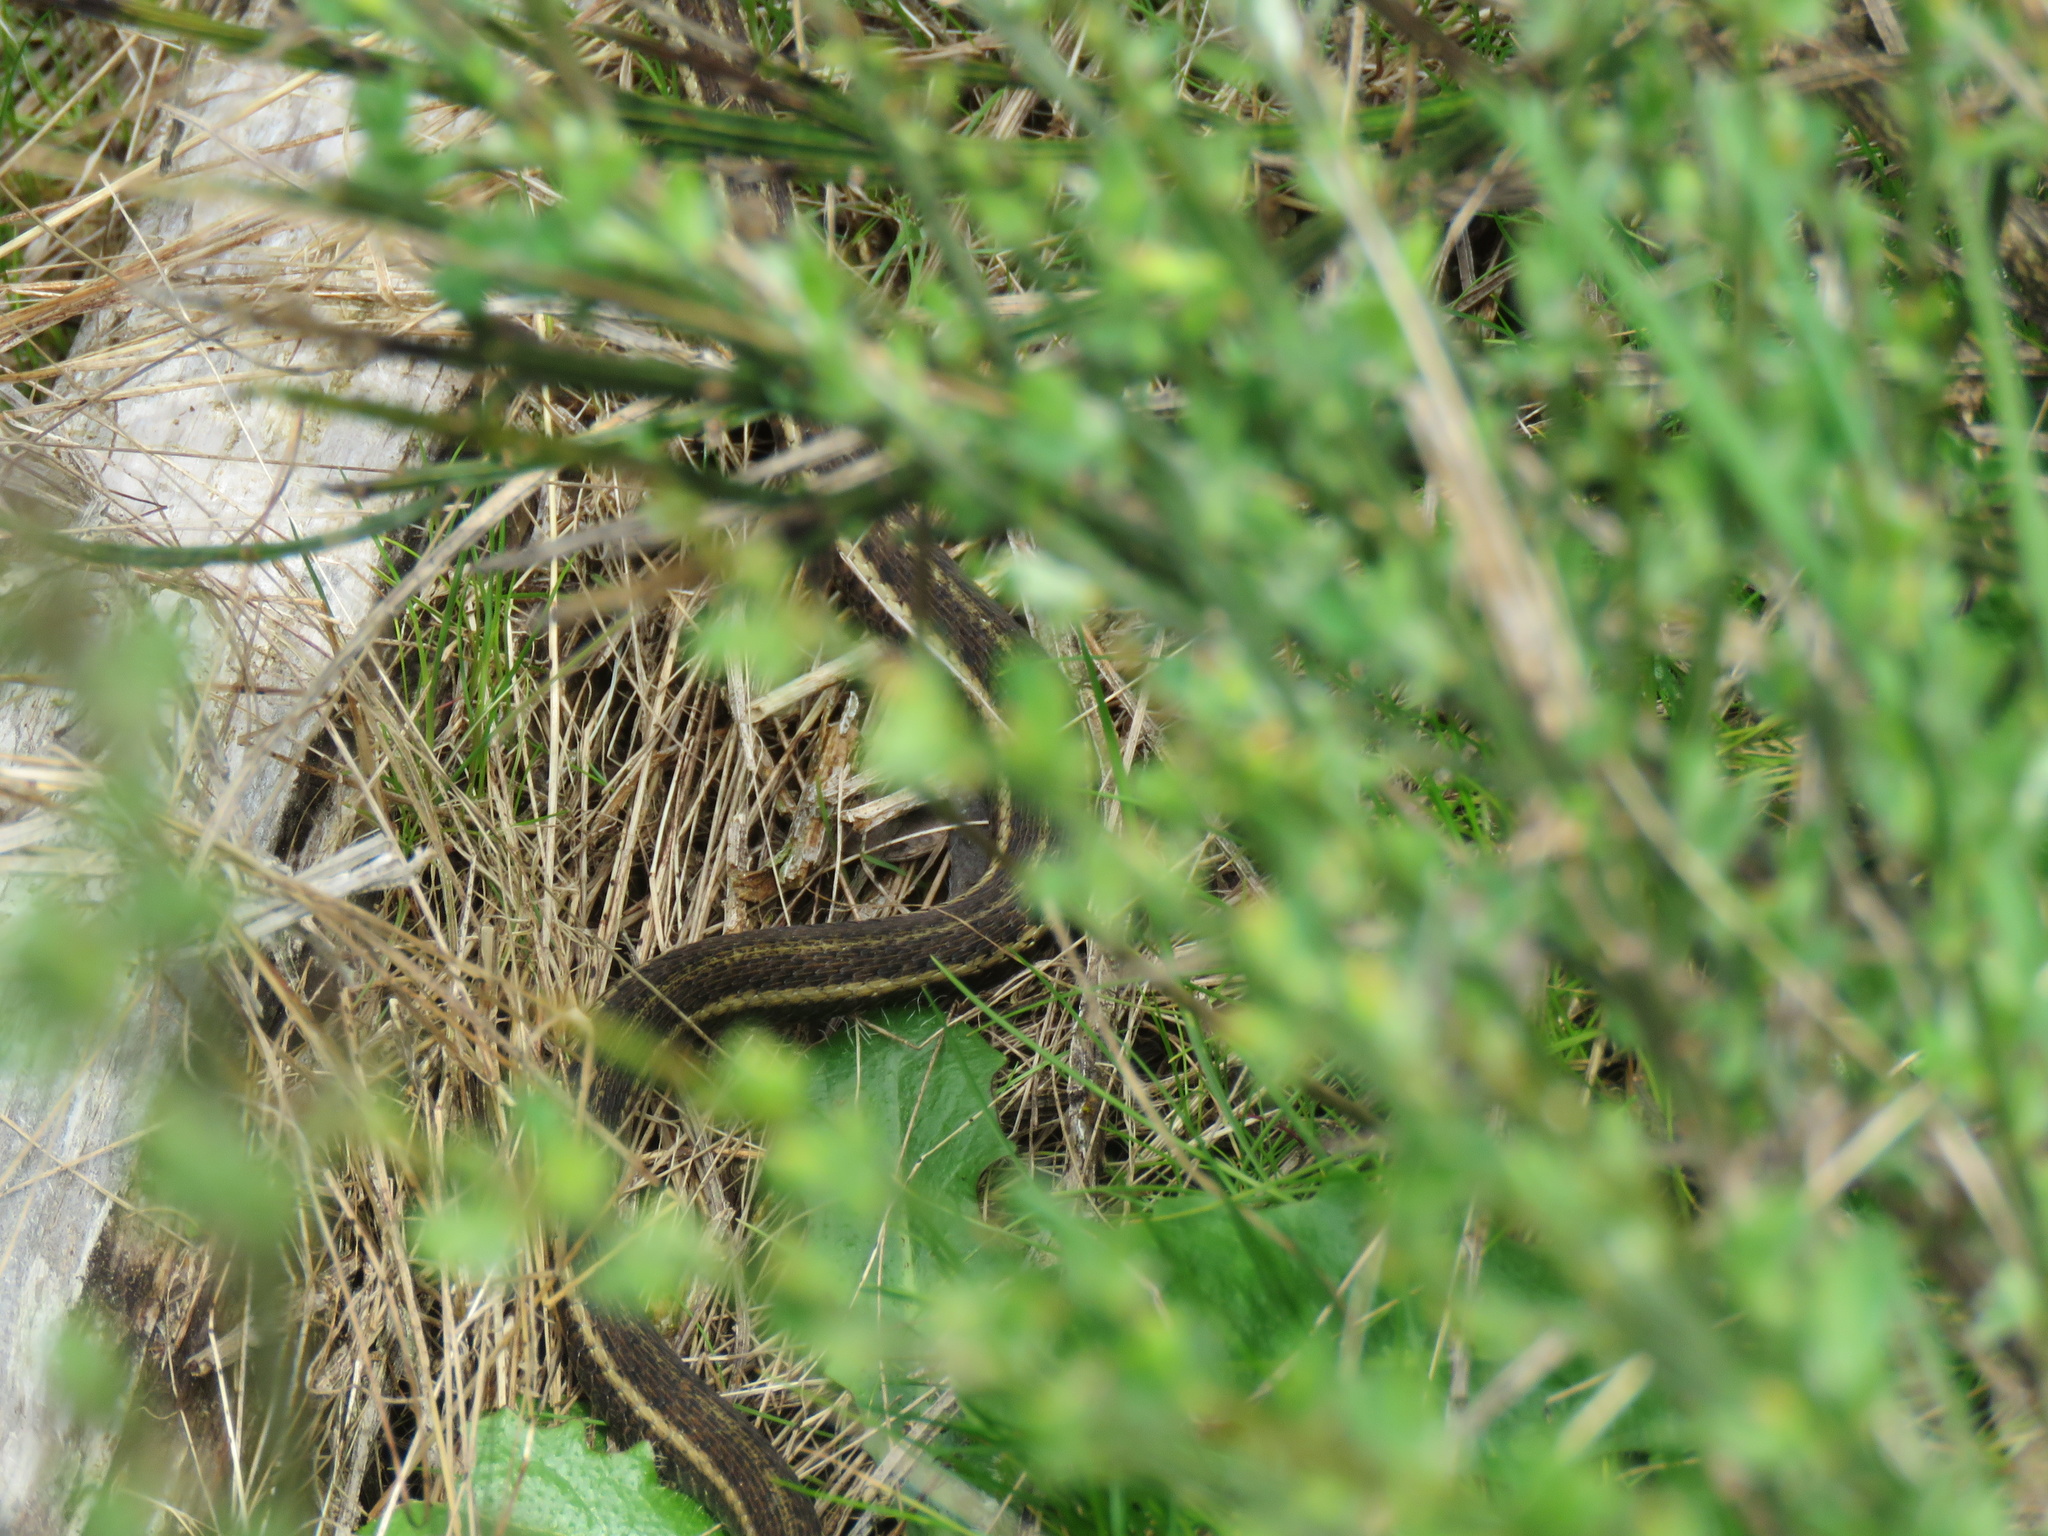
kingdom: Animalia
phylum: Chordata
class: Squamata
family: Colubridae
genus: Thamnophis
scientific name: Thamnophis ordinoides
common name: Northwestern garter snake
